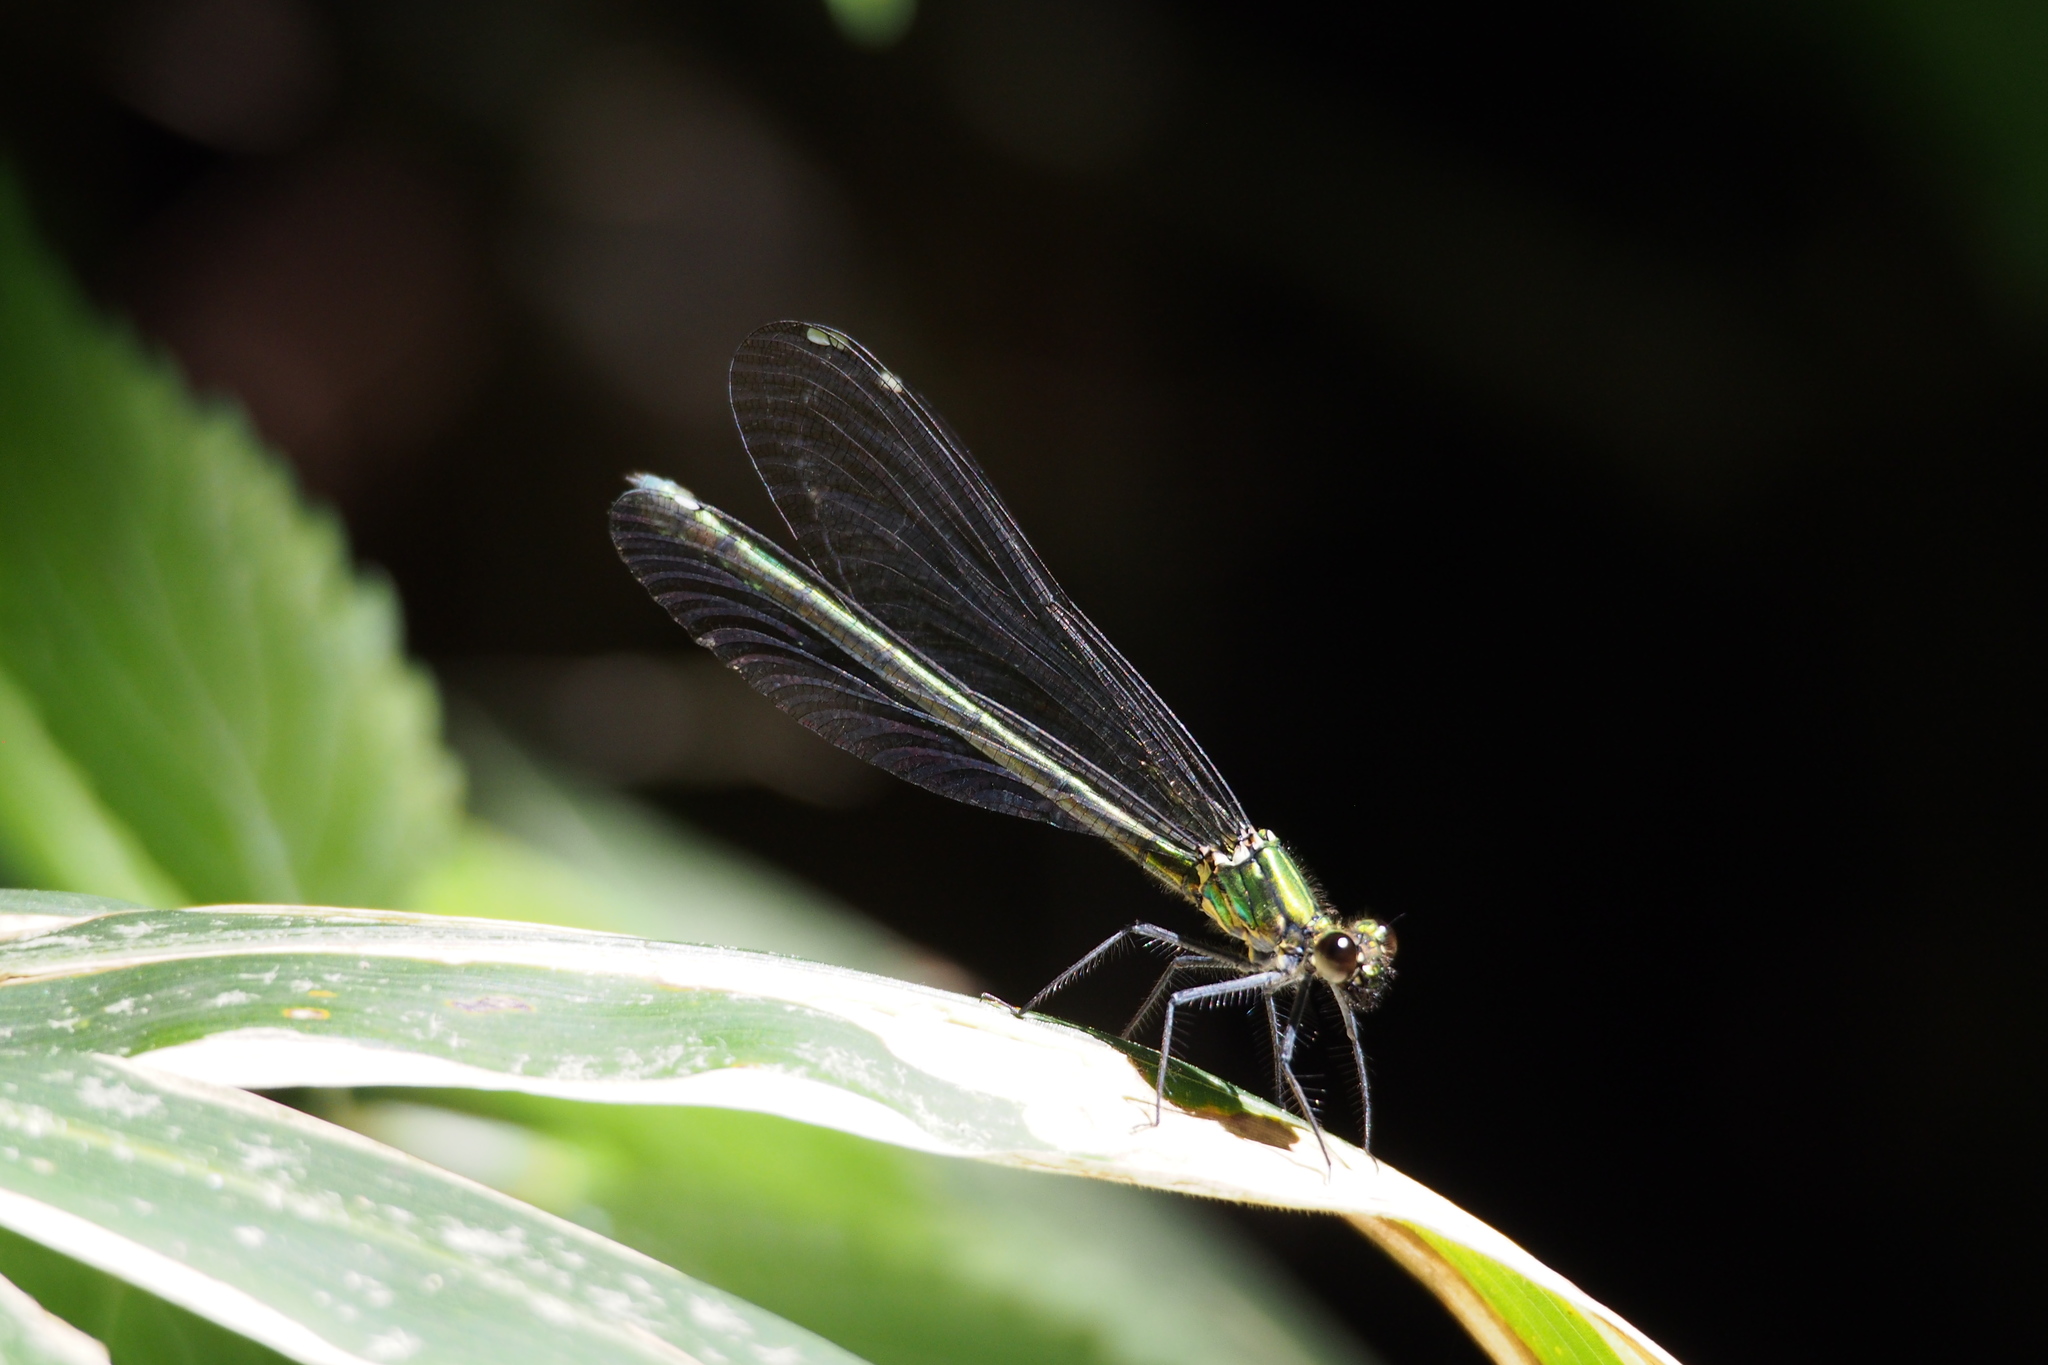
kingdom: Animalia
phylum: Arthropoda
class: Insecta
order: Odonata
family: Calopterygidae
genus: Mnais
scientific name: Mnais pruinosa
